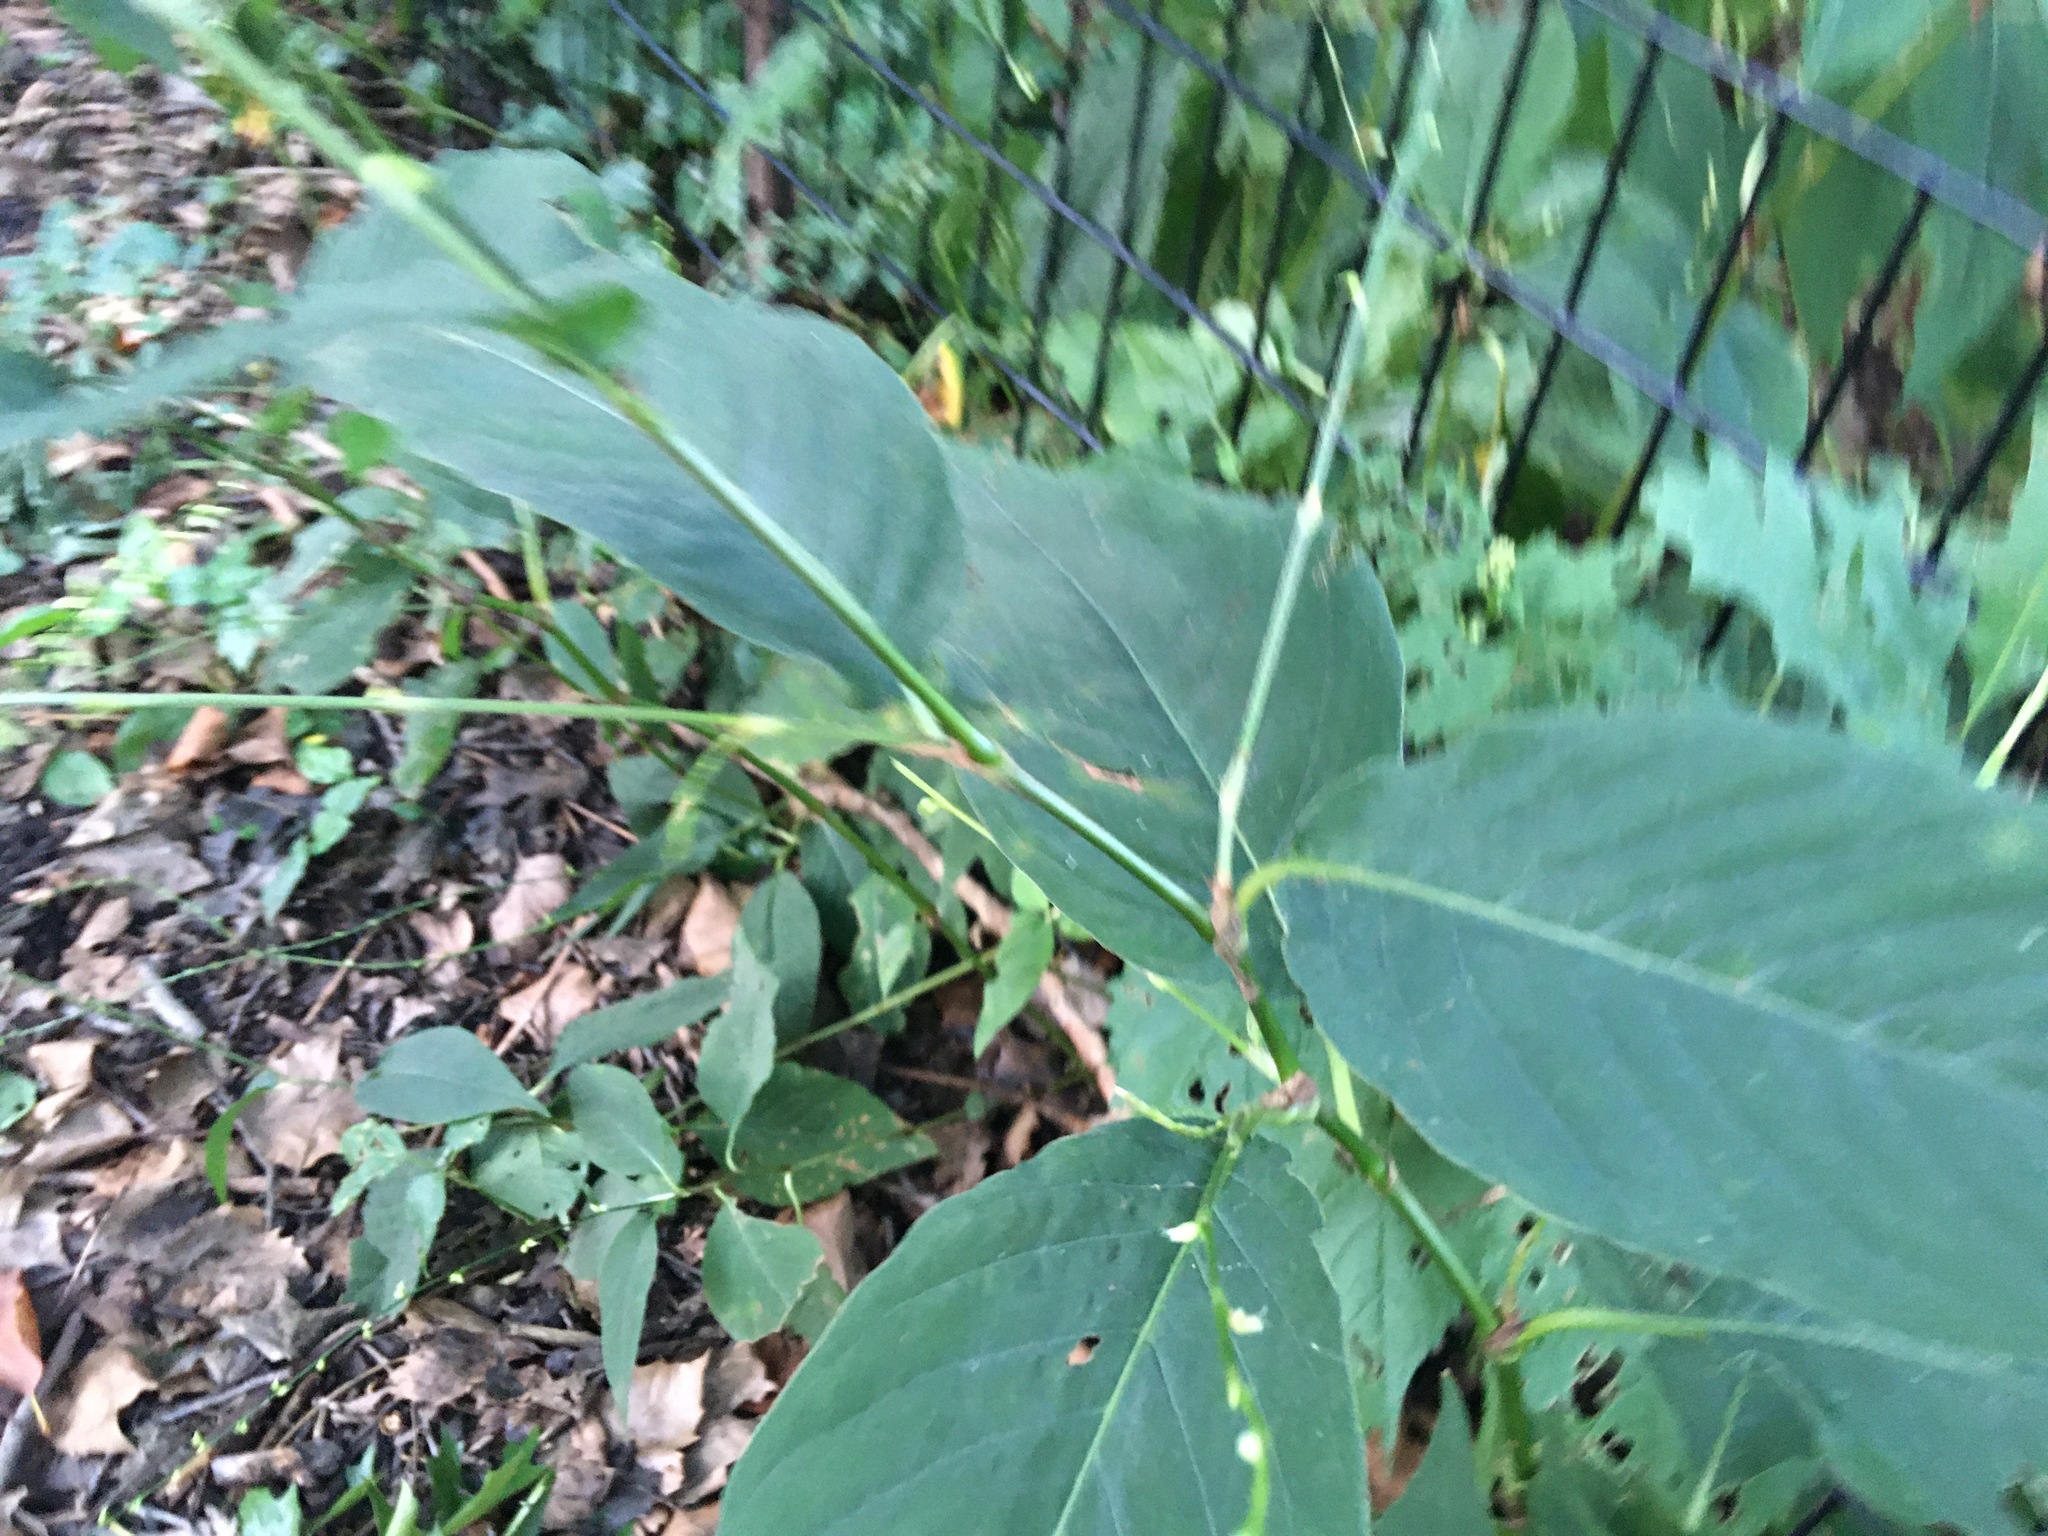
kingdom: Plantae
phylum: Tracheophyta
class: Magnoliopsida
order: Caryophyllales
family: Polygonaceae
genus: Persicaria
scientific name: Persicaria virginiana
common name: Jumpseed
